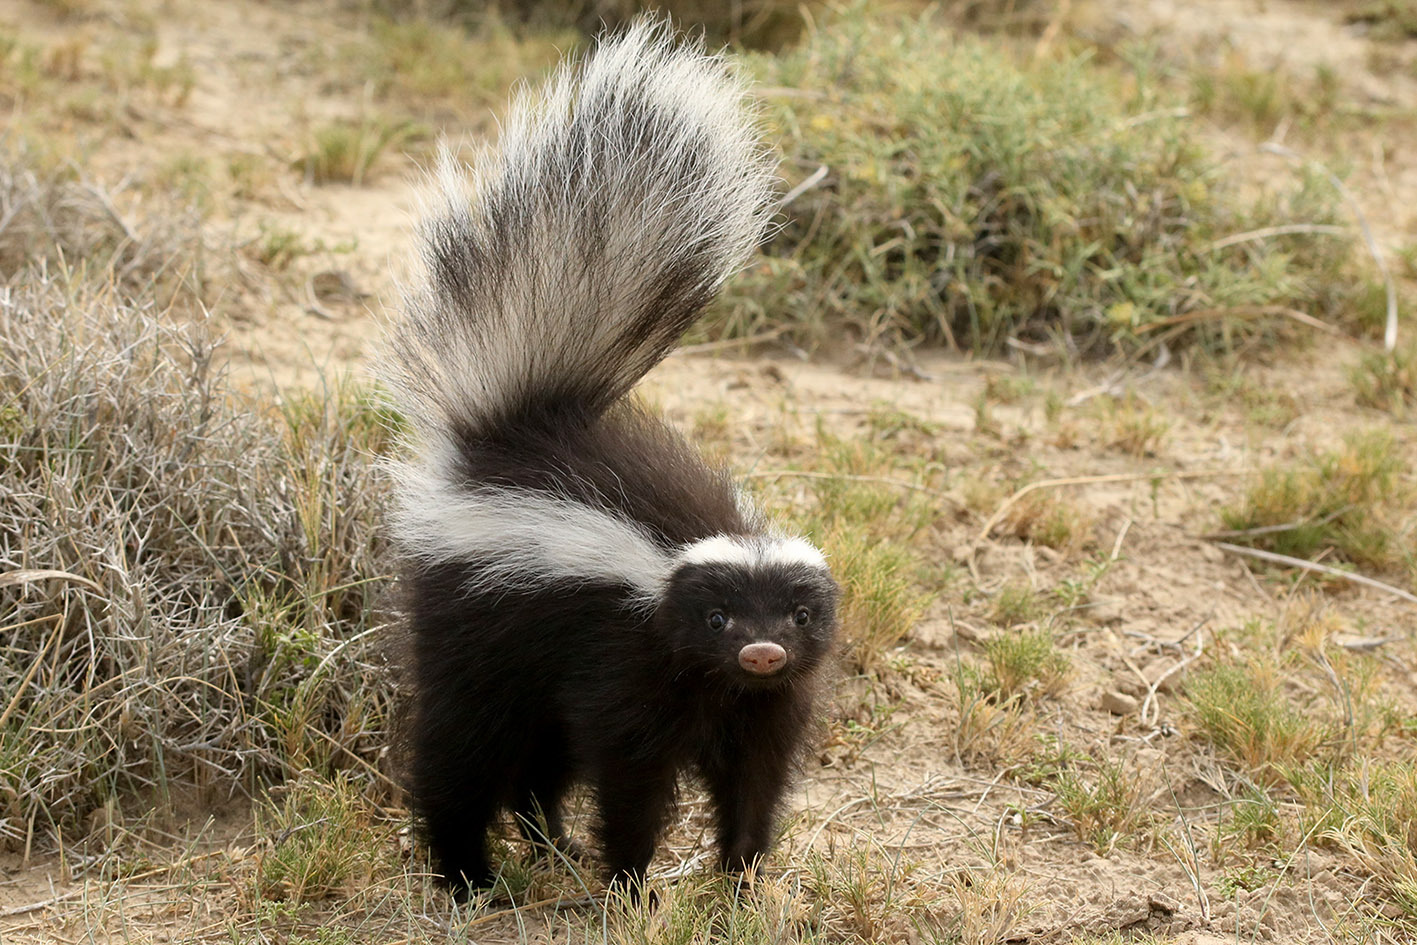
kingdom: Animalia
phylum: Chordata
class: Mammalia
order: Carnivora
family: Mephitidae
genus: Conepatus
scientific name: Conepatus chinga
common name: Molina's hog-nosed skunk
